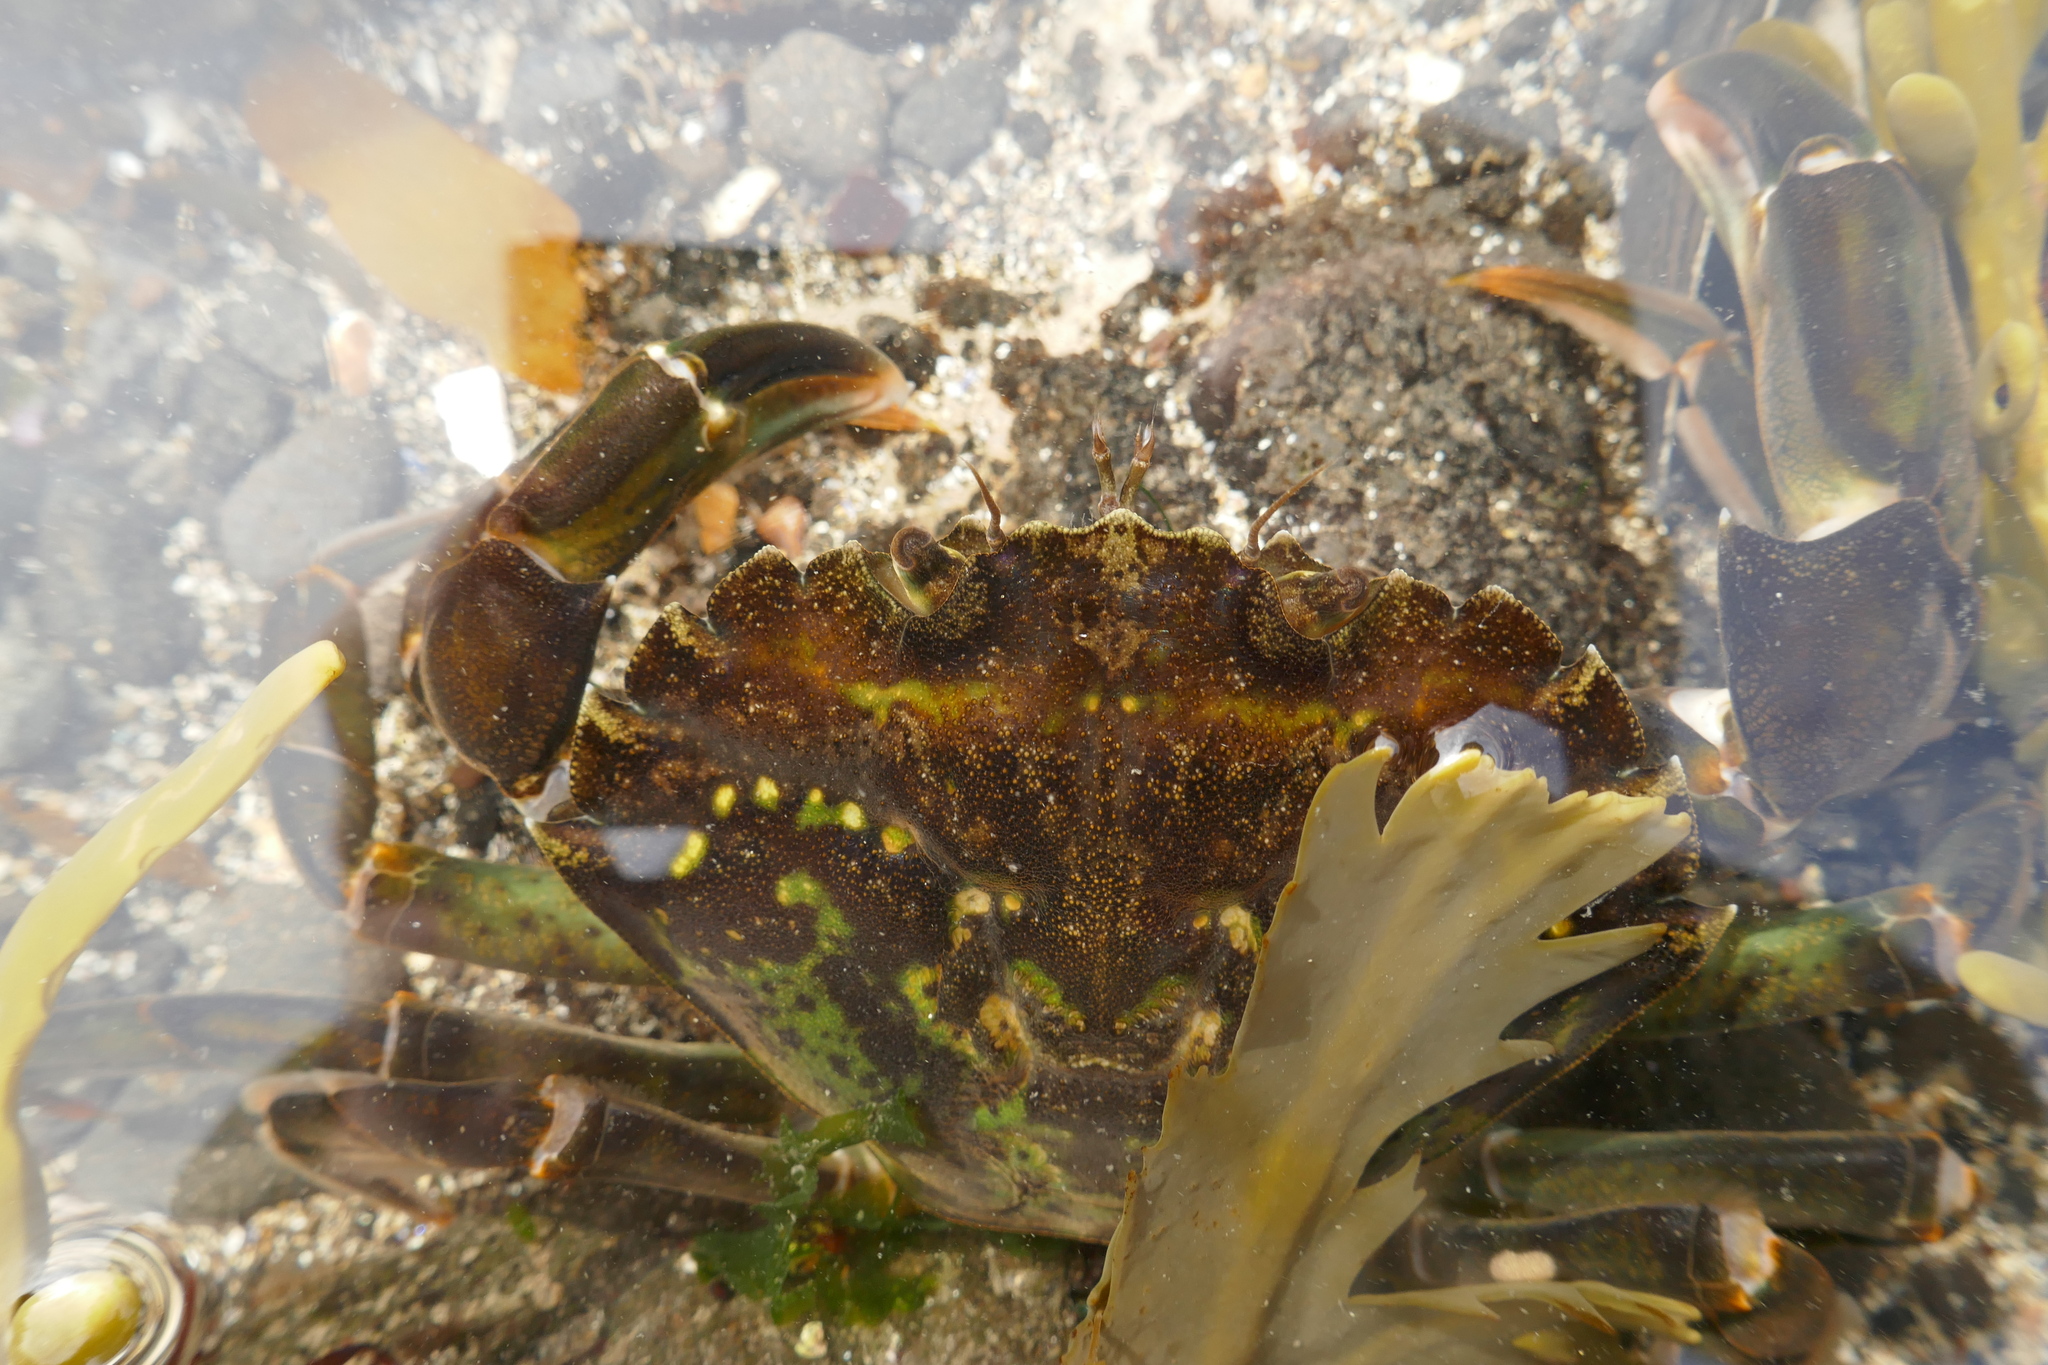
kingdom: Animalia
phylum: Arthropoda
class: Malacostraca
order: Decapoda
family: Carcinidae
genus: Carcinus
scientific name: Carcinus maenas
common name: European green crab
